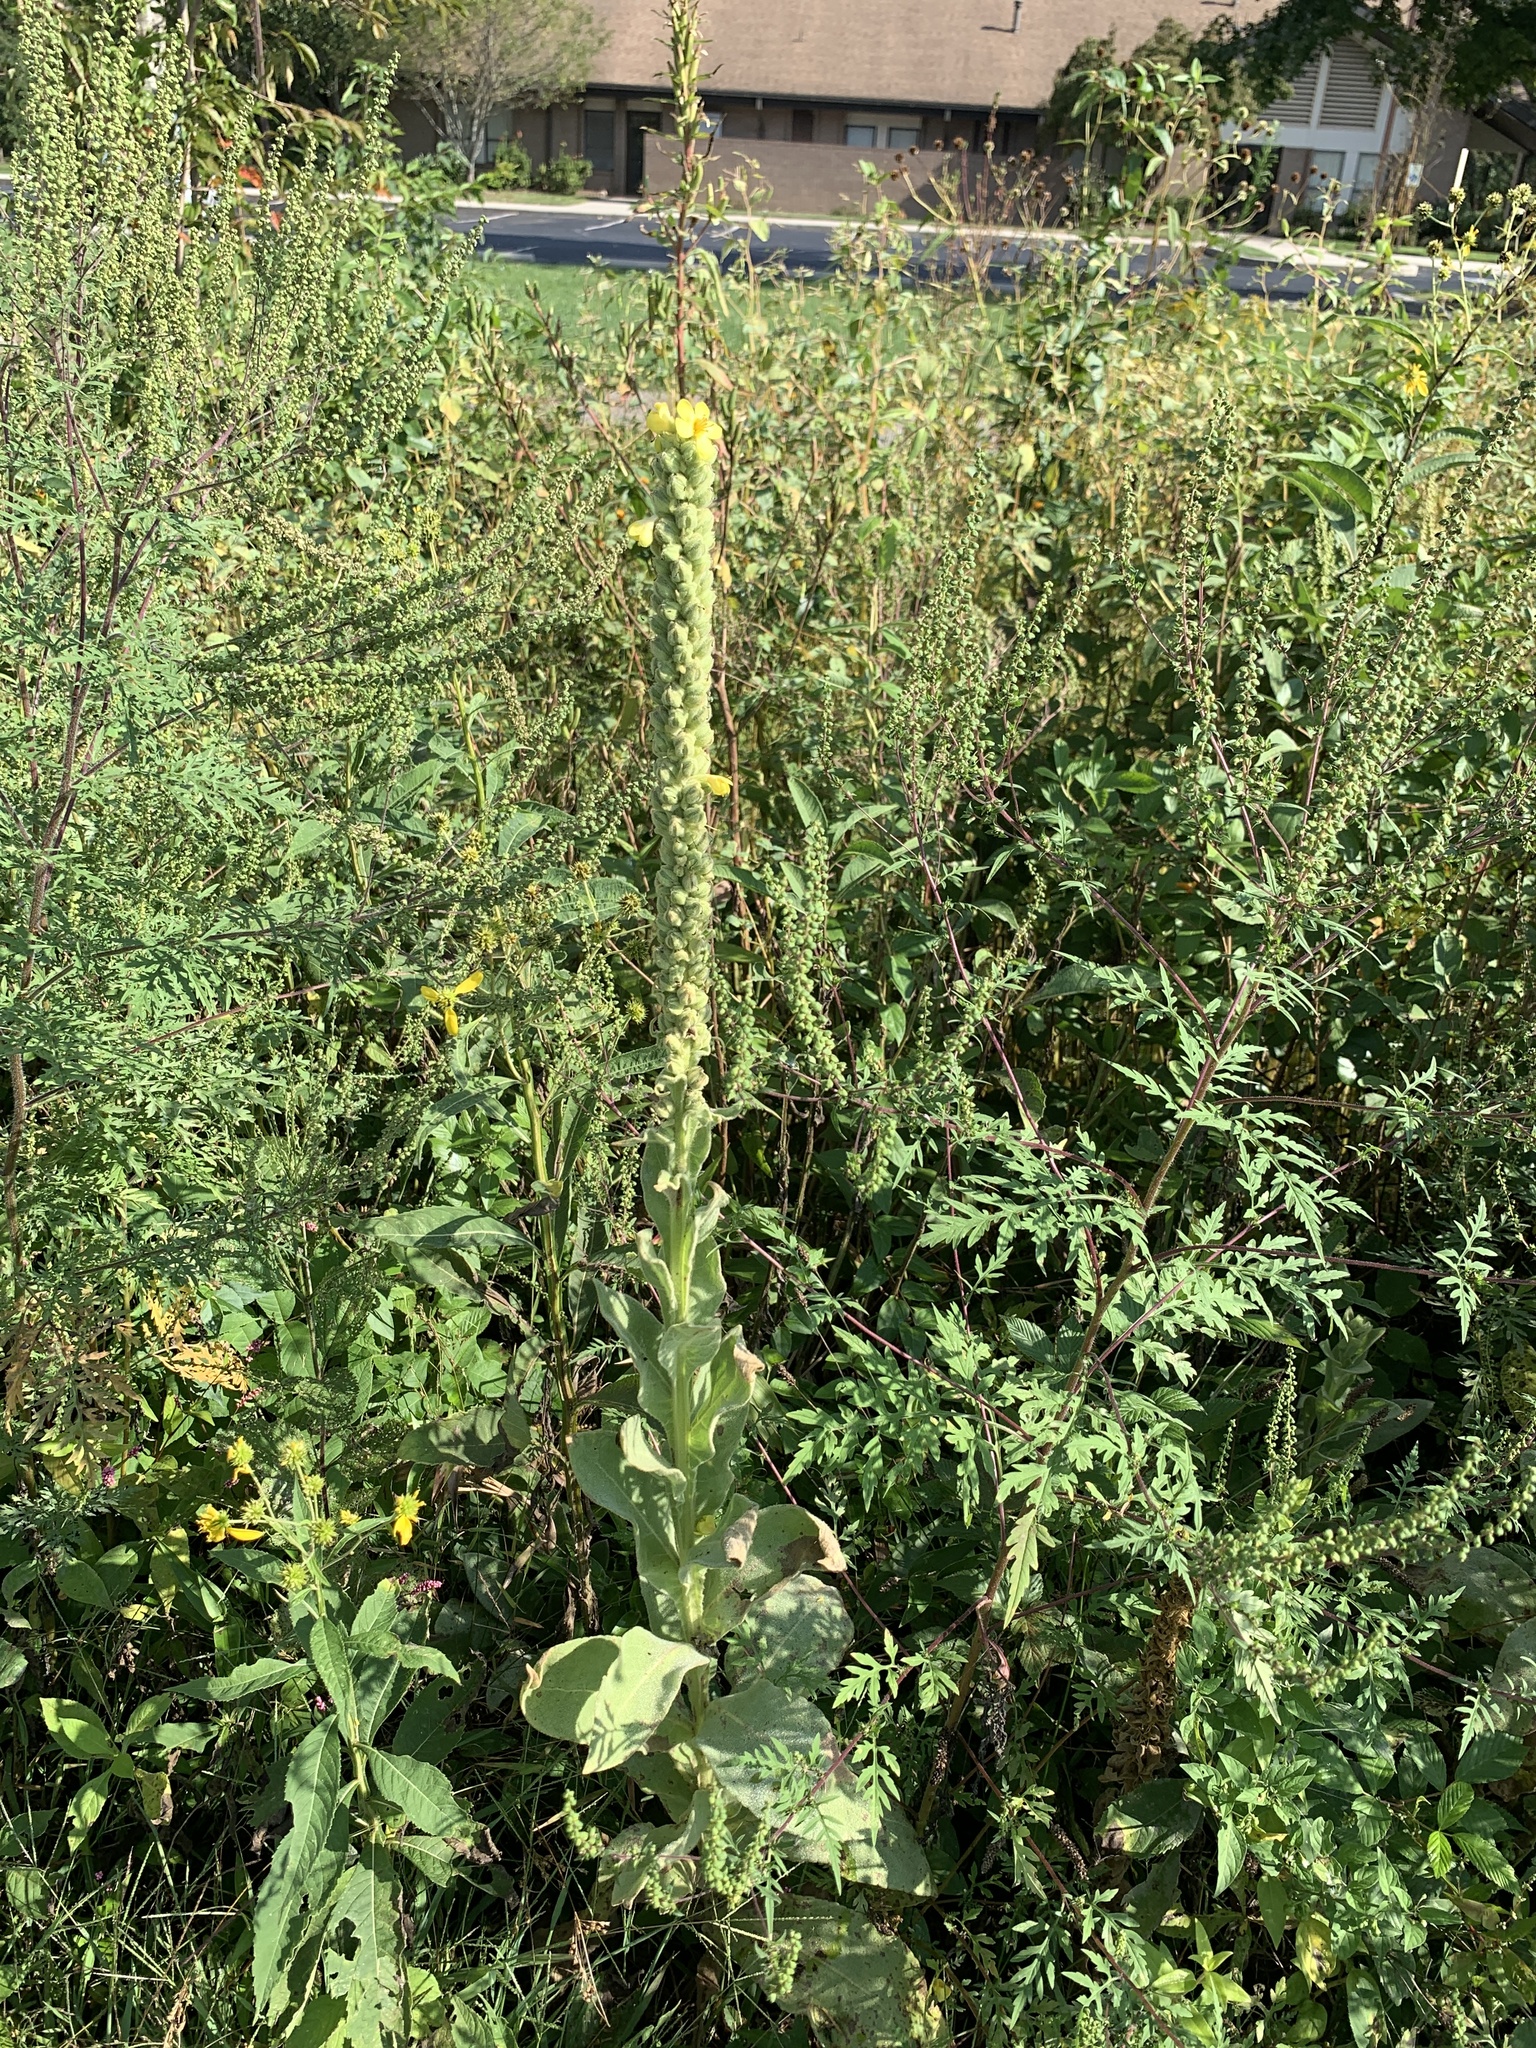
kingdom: Plantae
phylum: Tracheophyta
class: Magnoliopsida
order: Lamiales
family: Scrophulariaceae
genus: Verbascum
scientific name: Verbascum thapsus
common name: Common mullein
